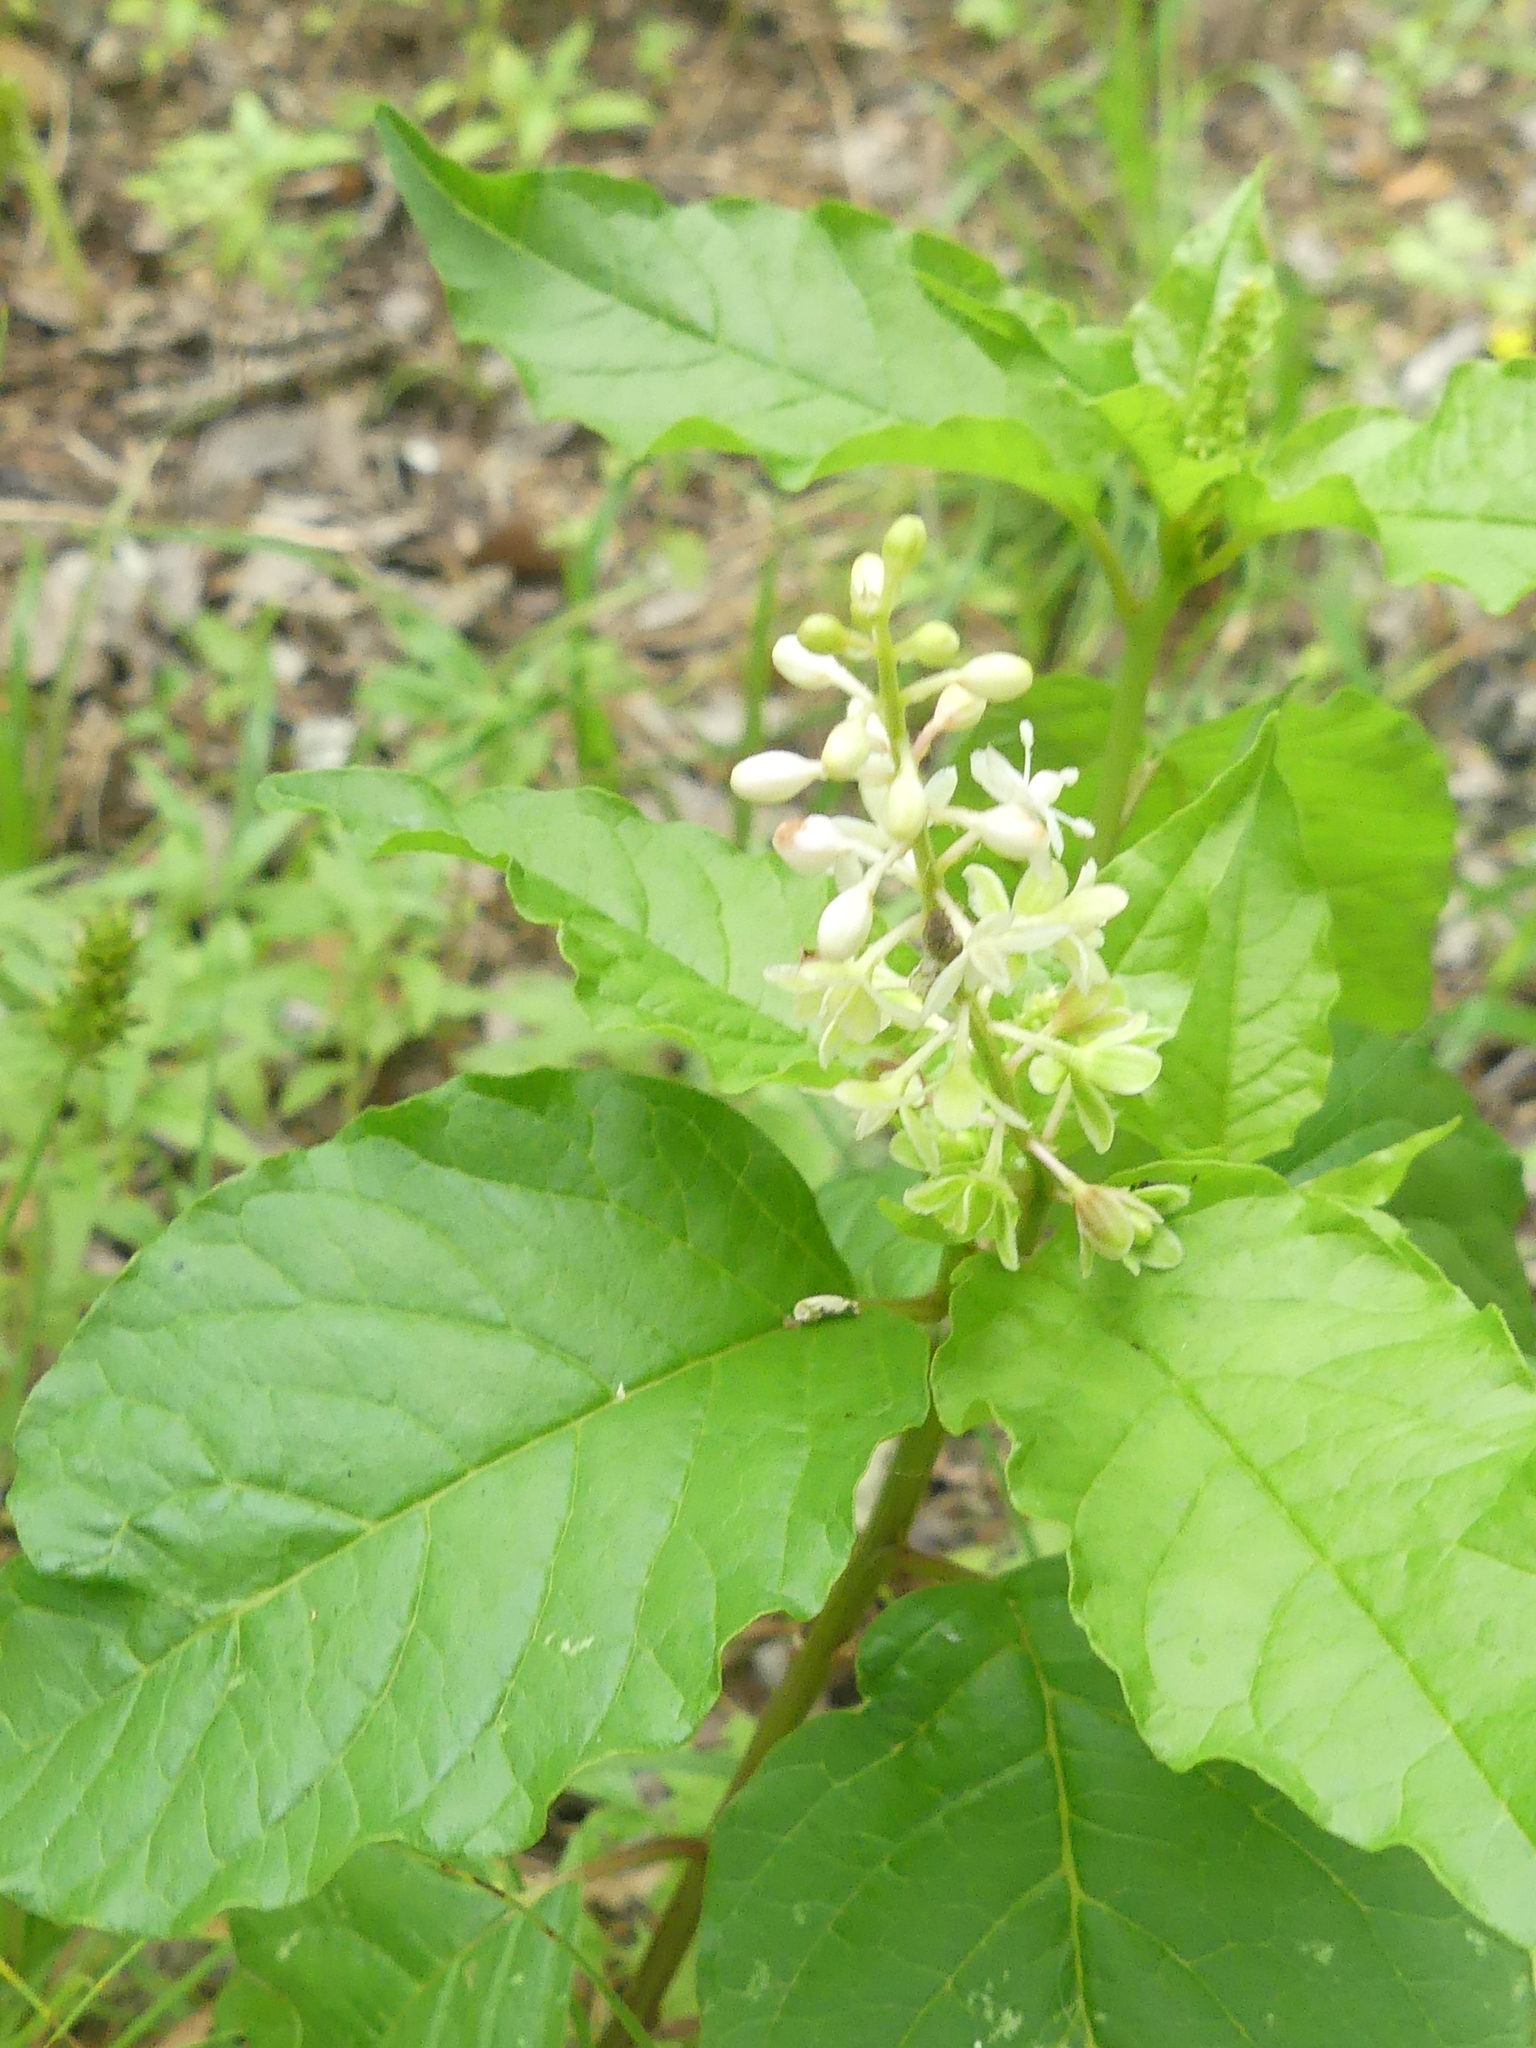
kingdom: Plantae
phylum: Tracheophyta
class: Magnoliopsida
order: Caryophyllales
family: Phytolaccaceae
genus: Rivina
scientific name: Rivina humilis
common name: Rougeplant
